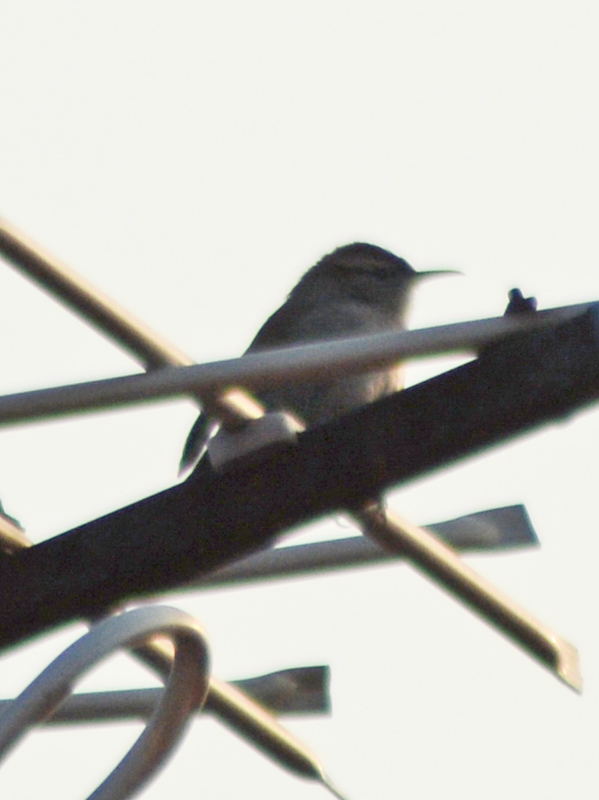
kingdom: Animalia
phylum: Chordata
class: Aves
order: Passeriformes
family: Troglodytidae
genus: Thryomanes
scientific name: Thryomanes bewickii
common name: Bewick's wren
